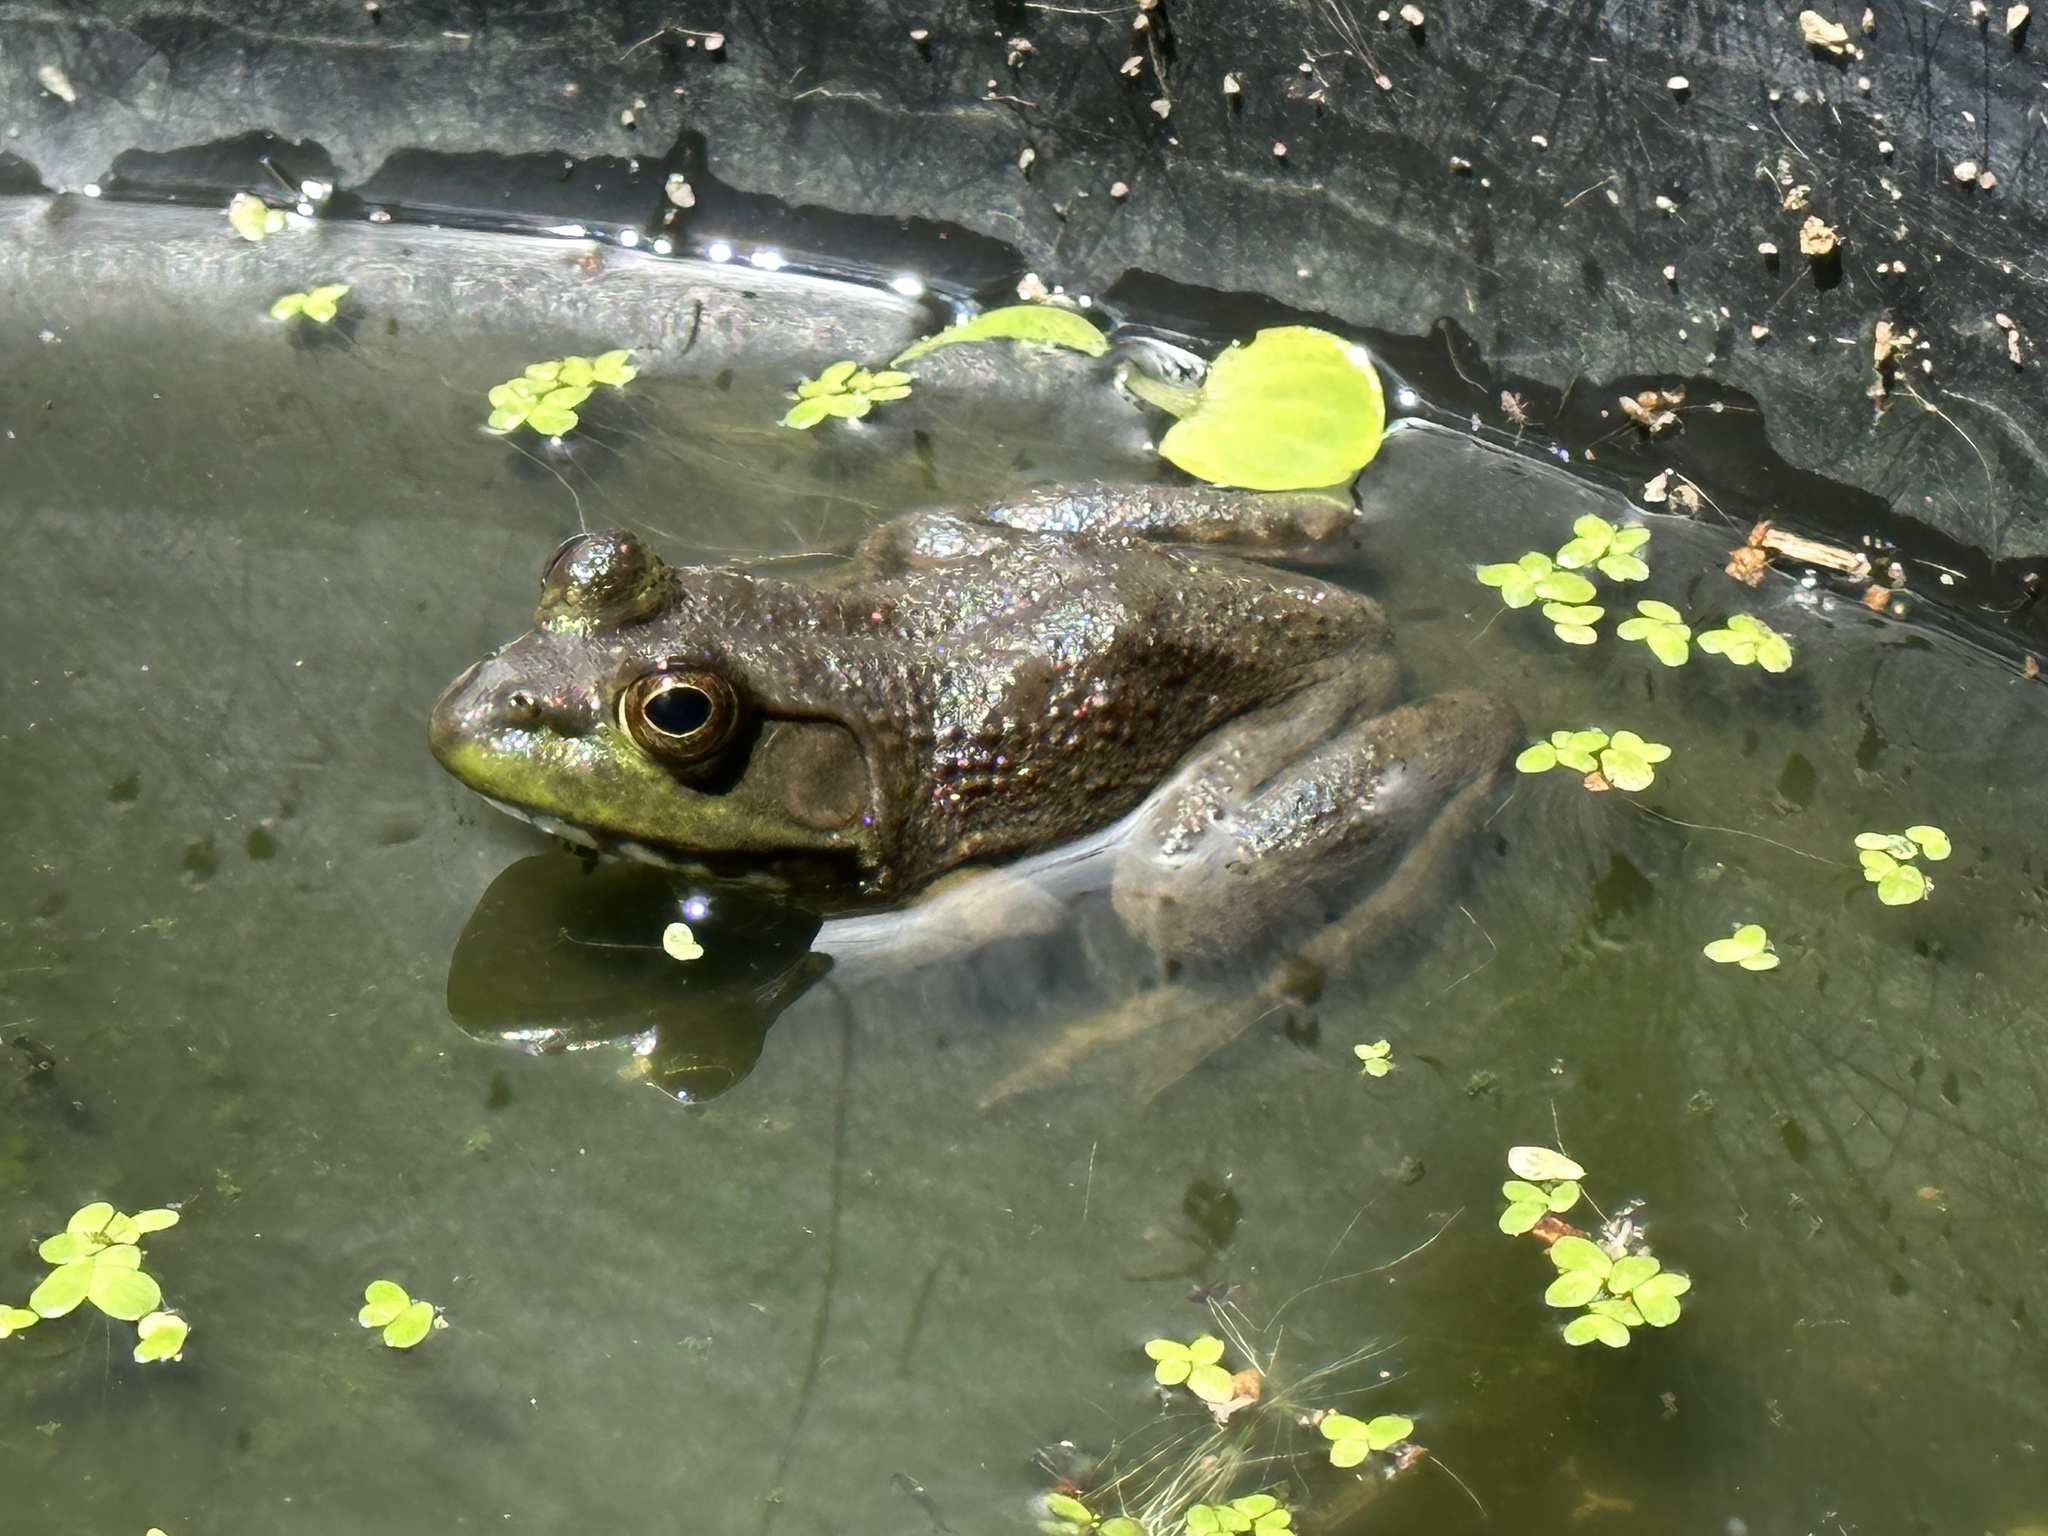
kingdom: Animalia
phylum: Chordata
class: Amphibia
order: Anura
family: Ranidae
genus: Lithobates
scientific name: Lithobates catesbeianus
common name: American bullfrog
